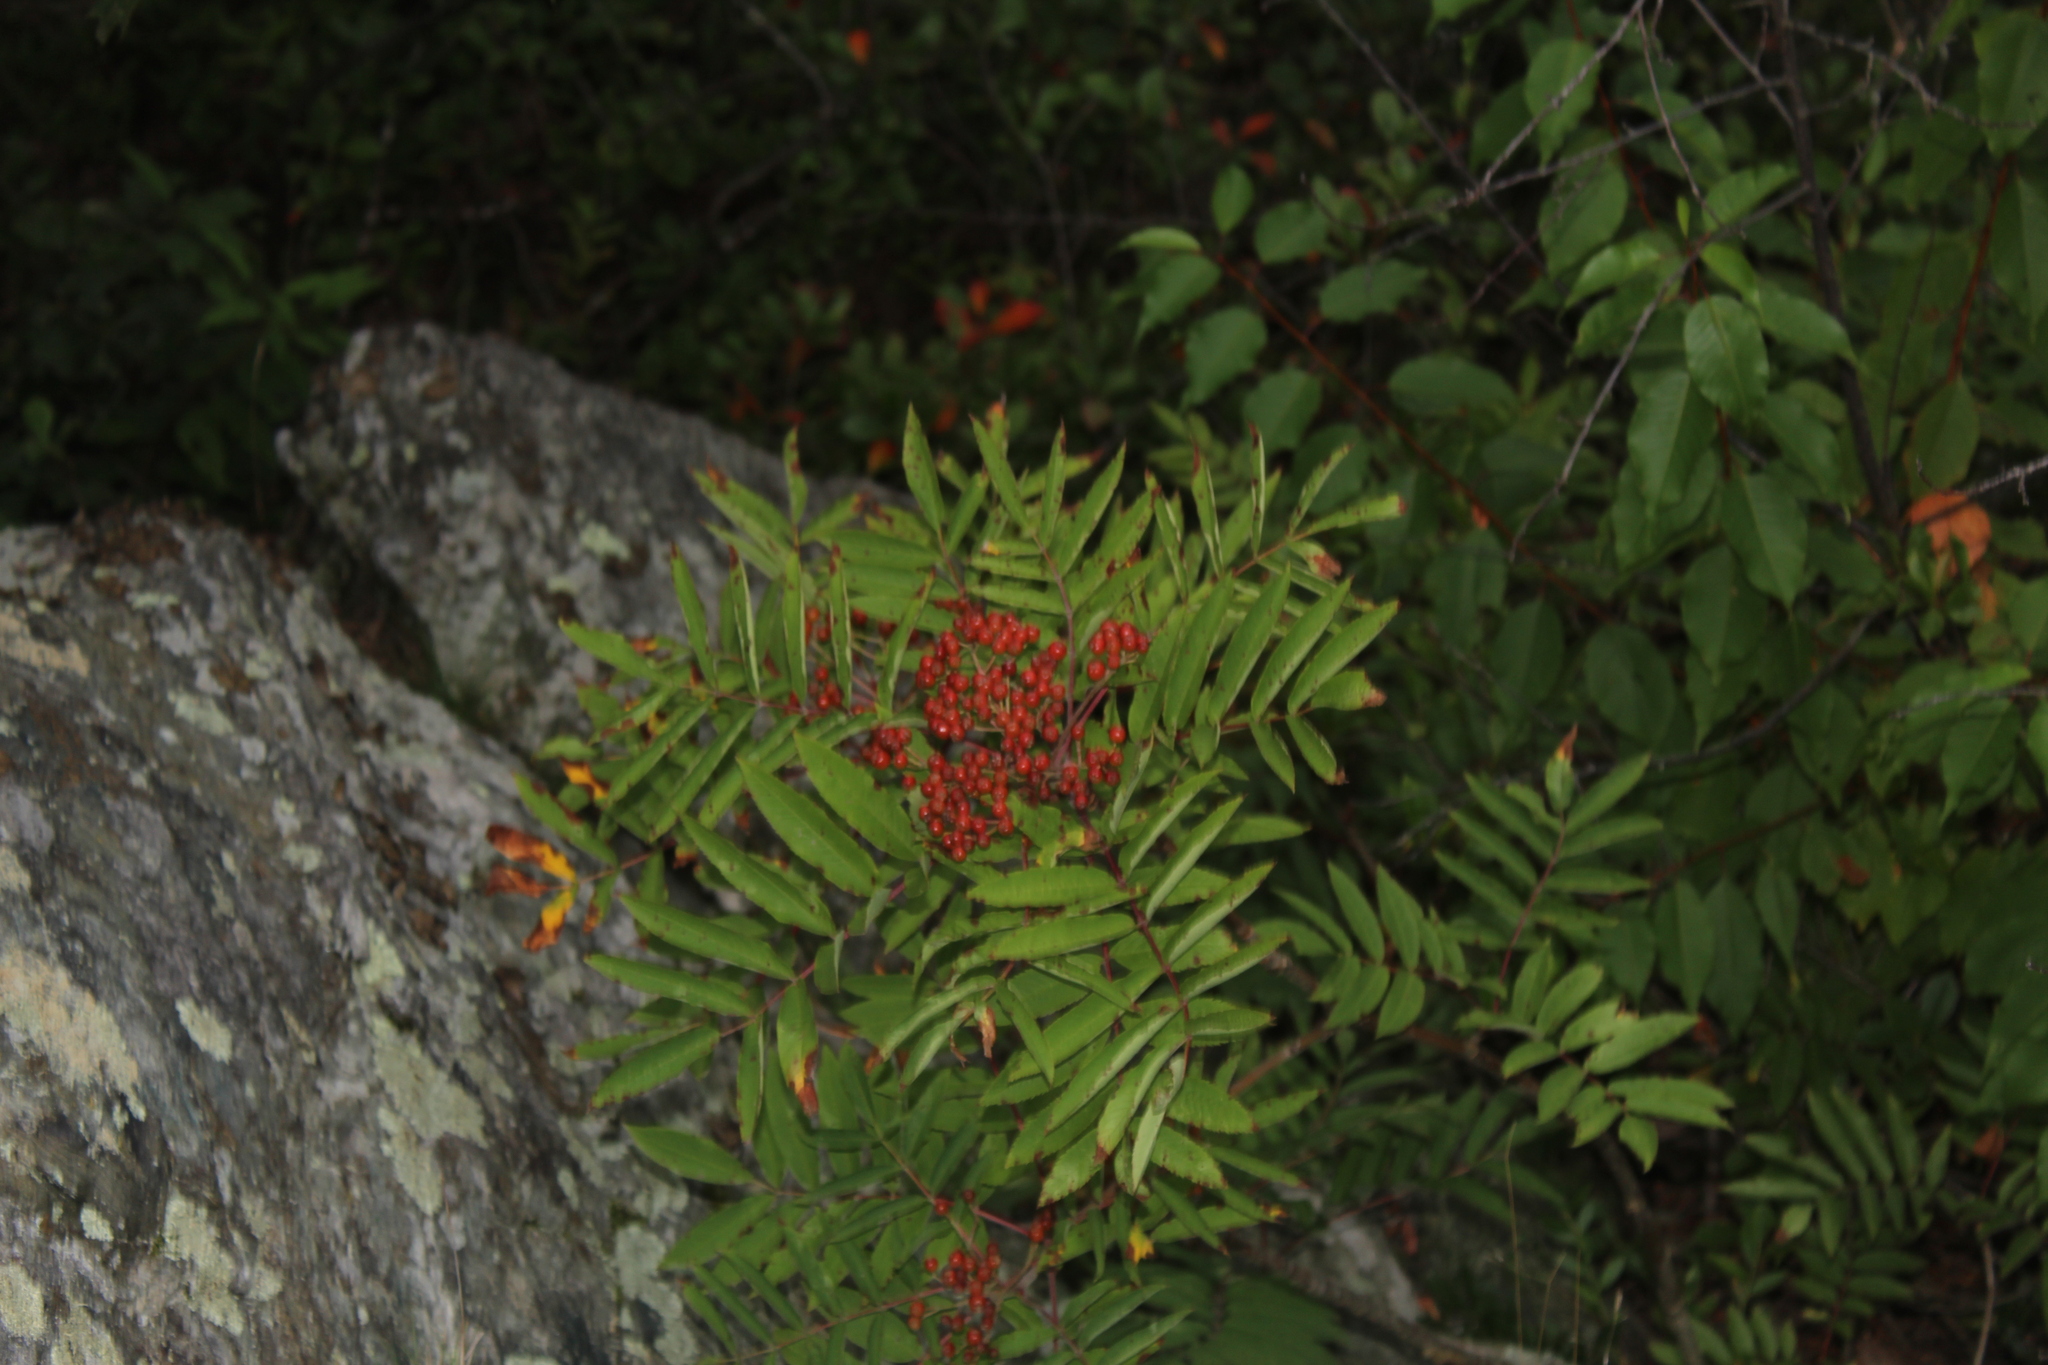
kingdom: Plantae
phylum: Tracheophyta
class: Magnoliopsida
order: Rosales
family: Rosaceae
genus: Sorbus
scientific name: Sorbus americana
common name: American mountain-ash
